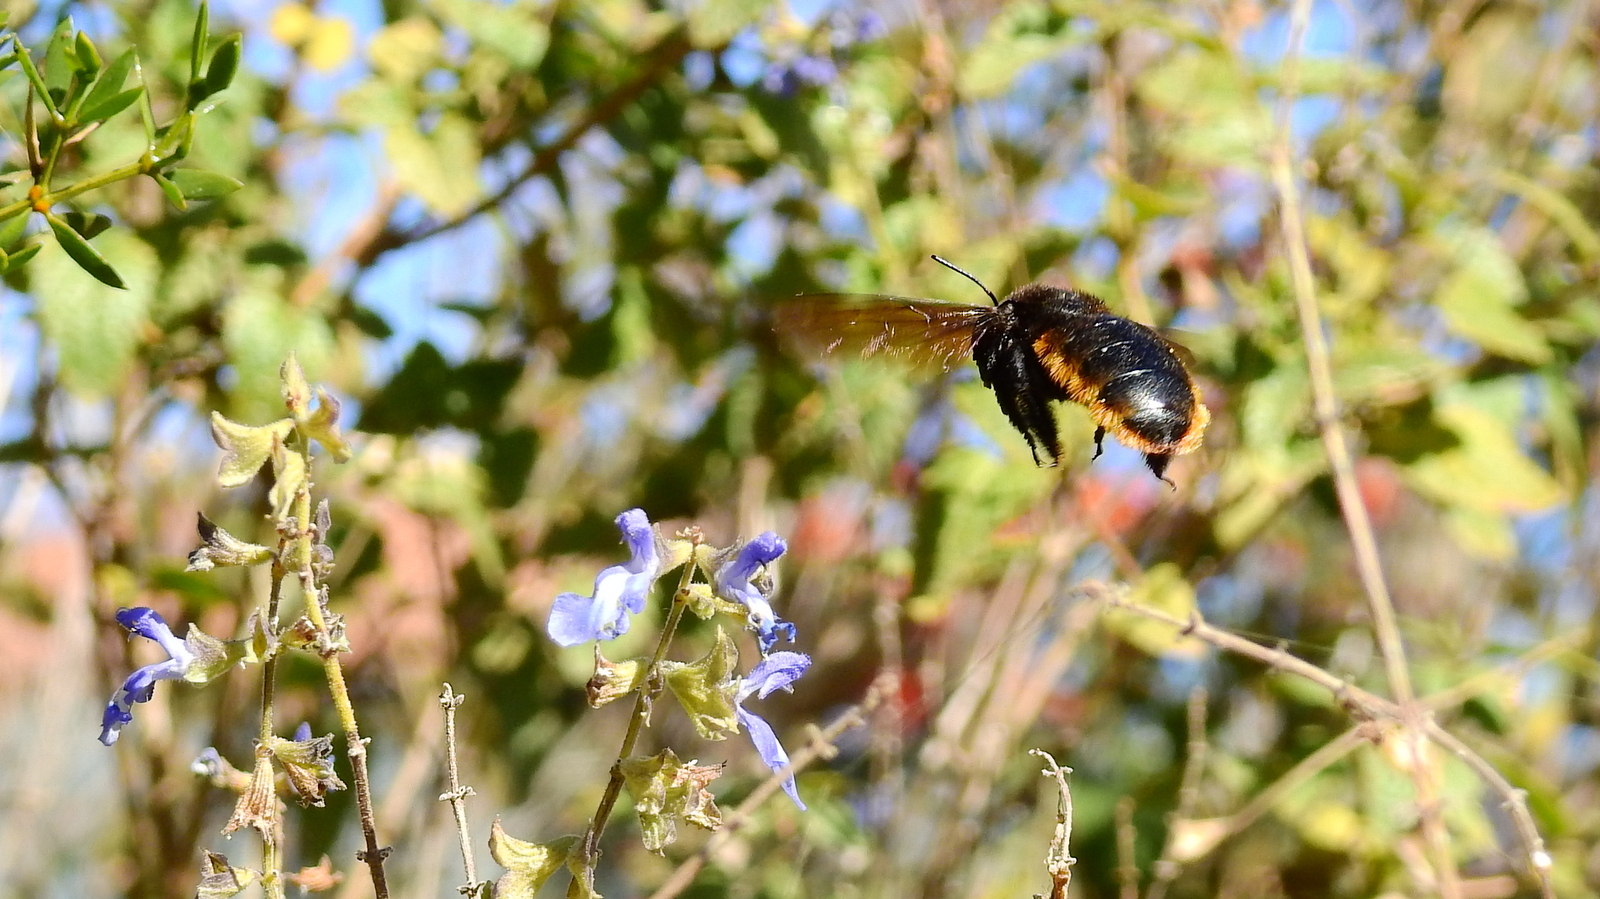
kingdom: Animalia
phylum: Arthropoda
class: Insecta
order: Hymenoptera
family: Apidae
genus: Xylocopa
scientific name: Xylocopa augusti
